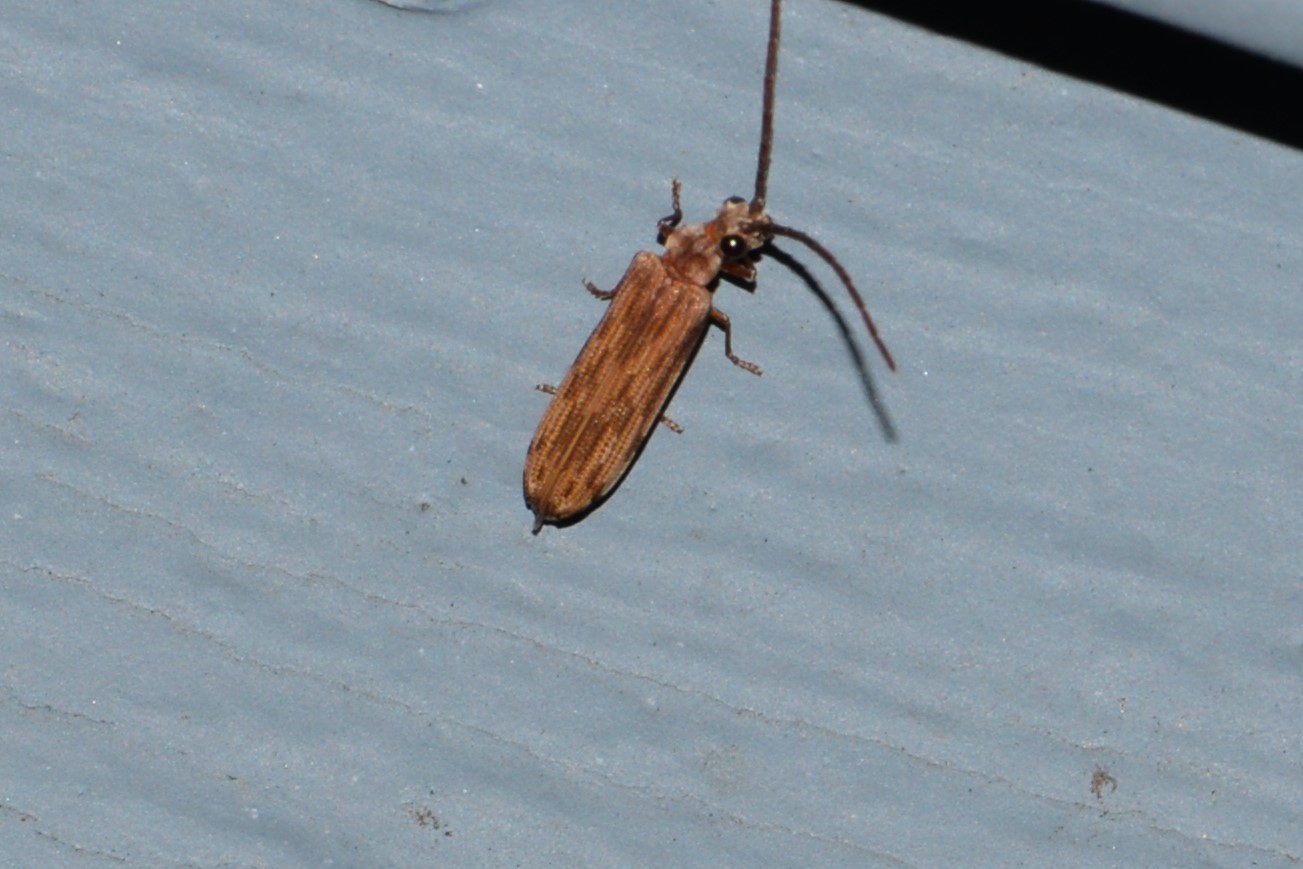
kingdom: Animalia
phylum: Arthropoda
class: Insecta
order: Coleoptera
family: Cupedidae
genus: Tenomerga
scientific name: Tenomerga cinerea
